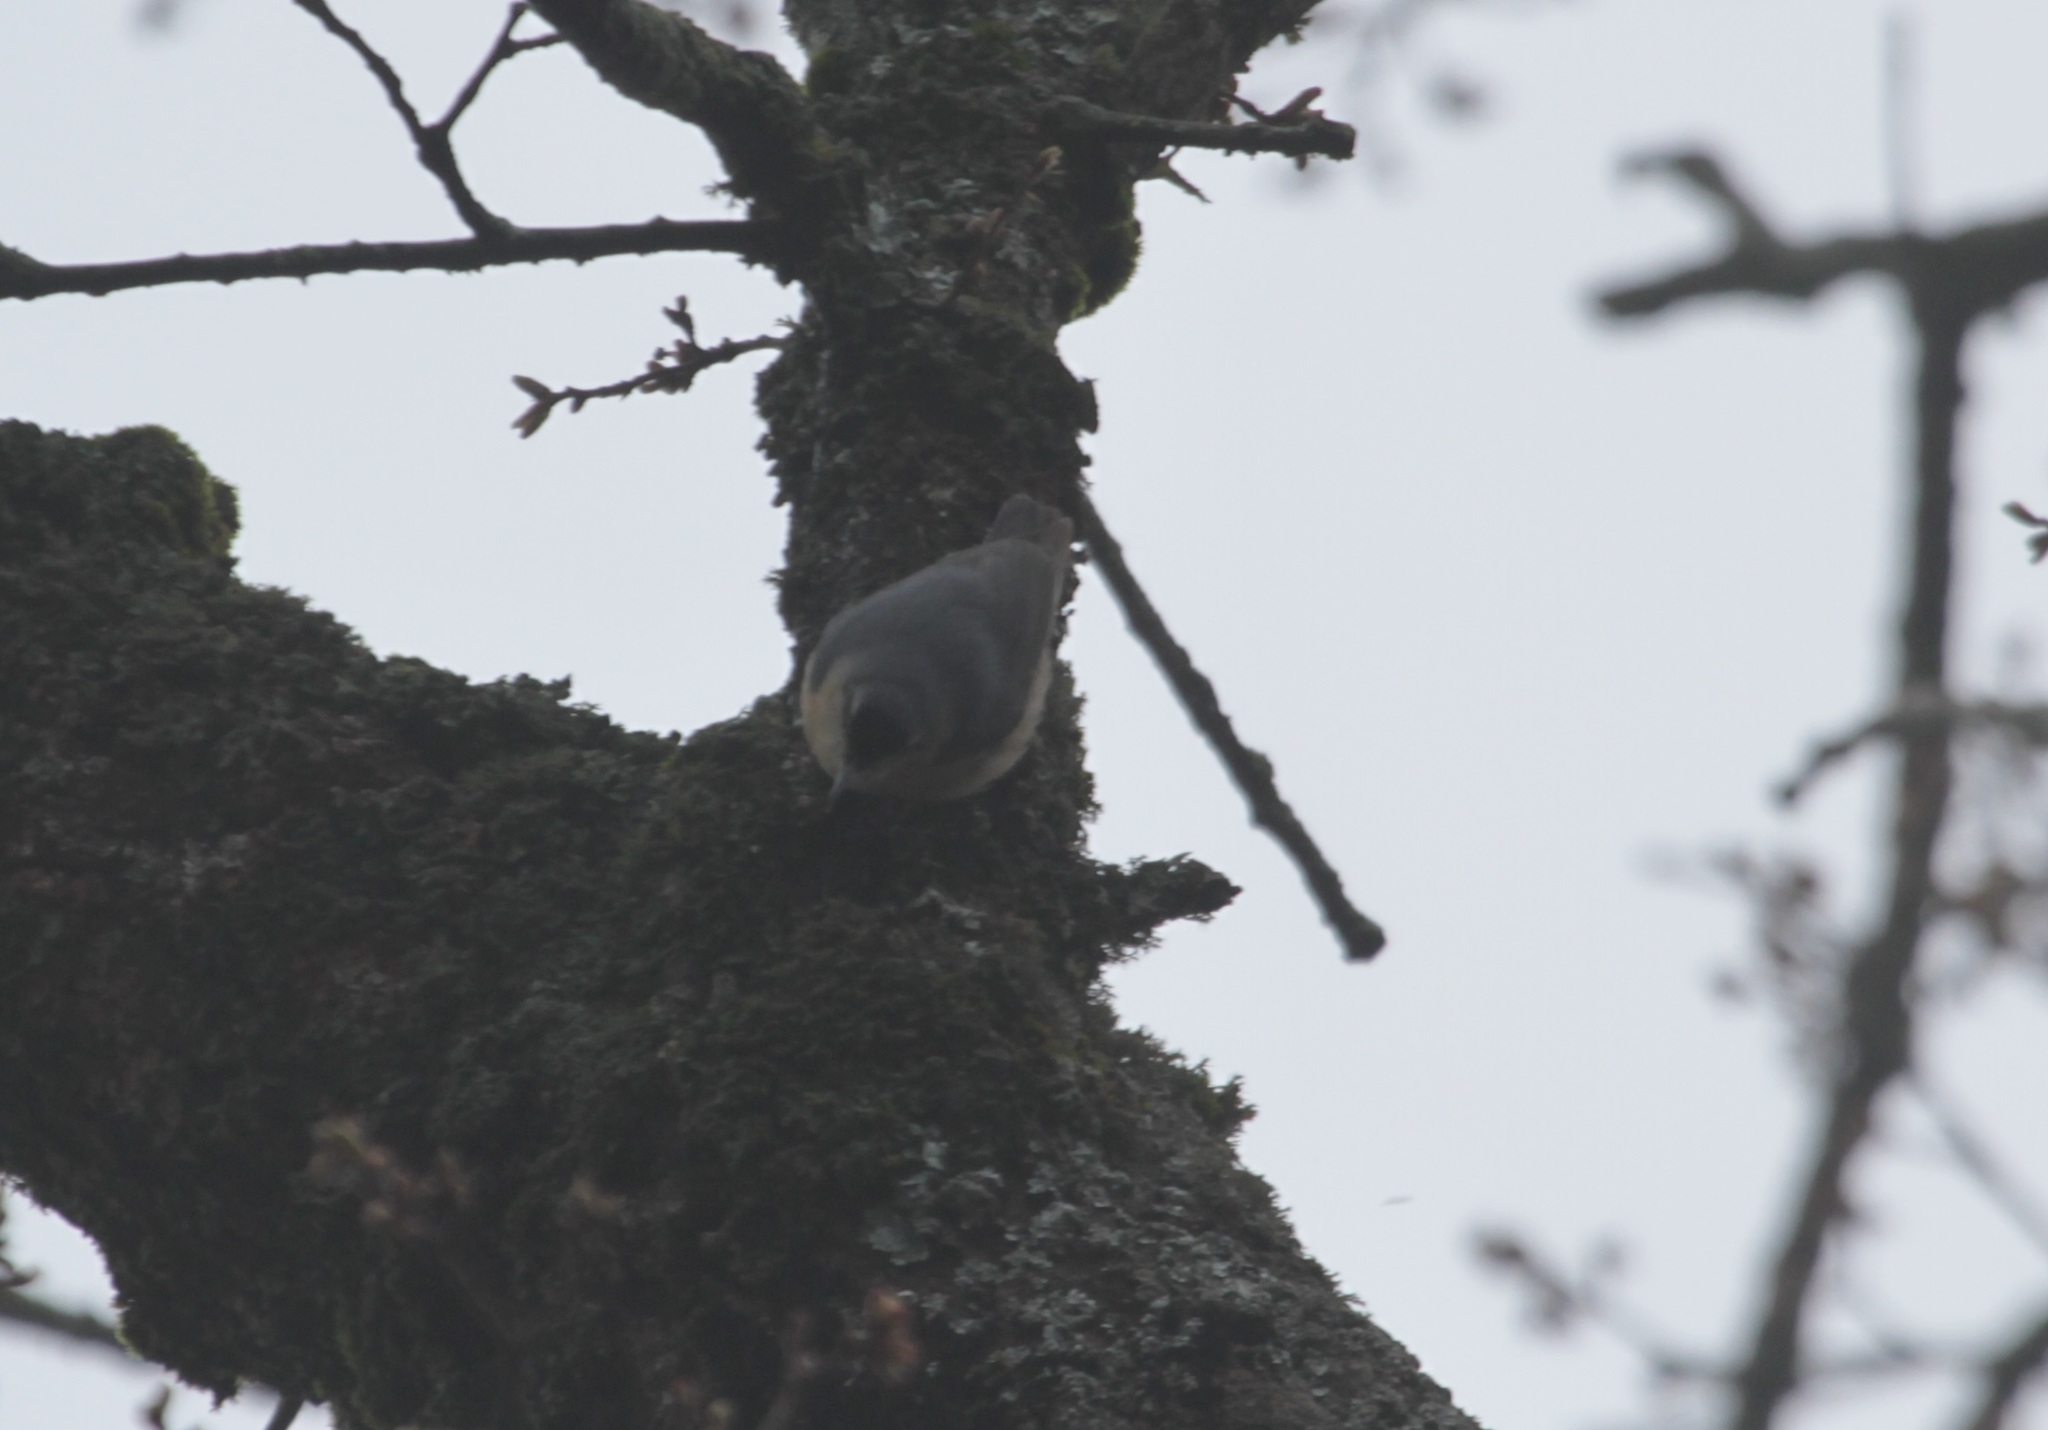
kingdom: Animalia
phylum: Chordata
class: Aves
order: Passeriformes
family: Sittidae
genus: Sitta
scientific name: Sitta ledanti
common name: Algerian nuthatch
